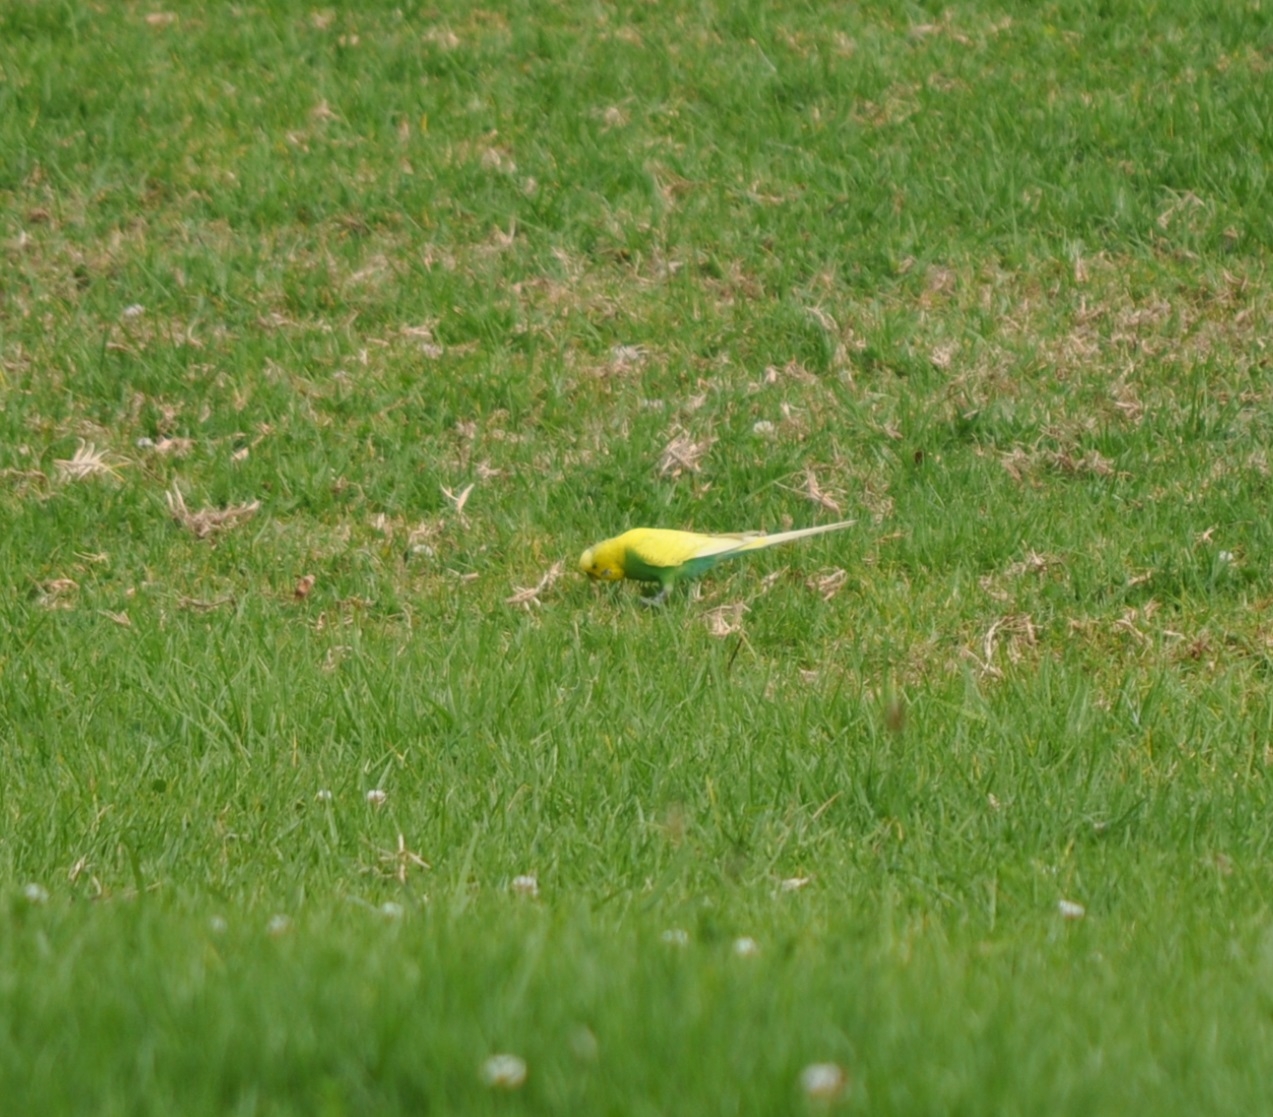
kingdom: Animalia
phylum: Chordata
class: Aves
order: Psittaciformes
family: Psittacidae
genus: Melopsittacus
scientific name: Melopsittacus undulatus
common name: Budgerigar
